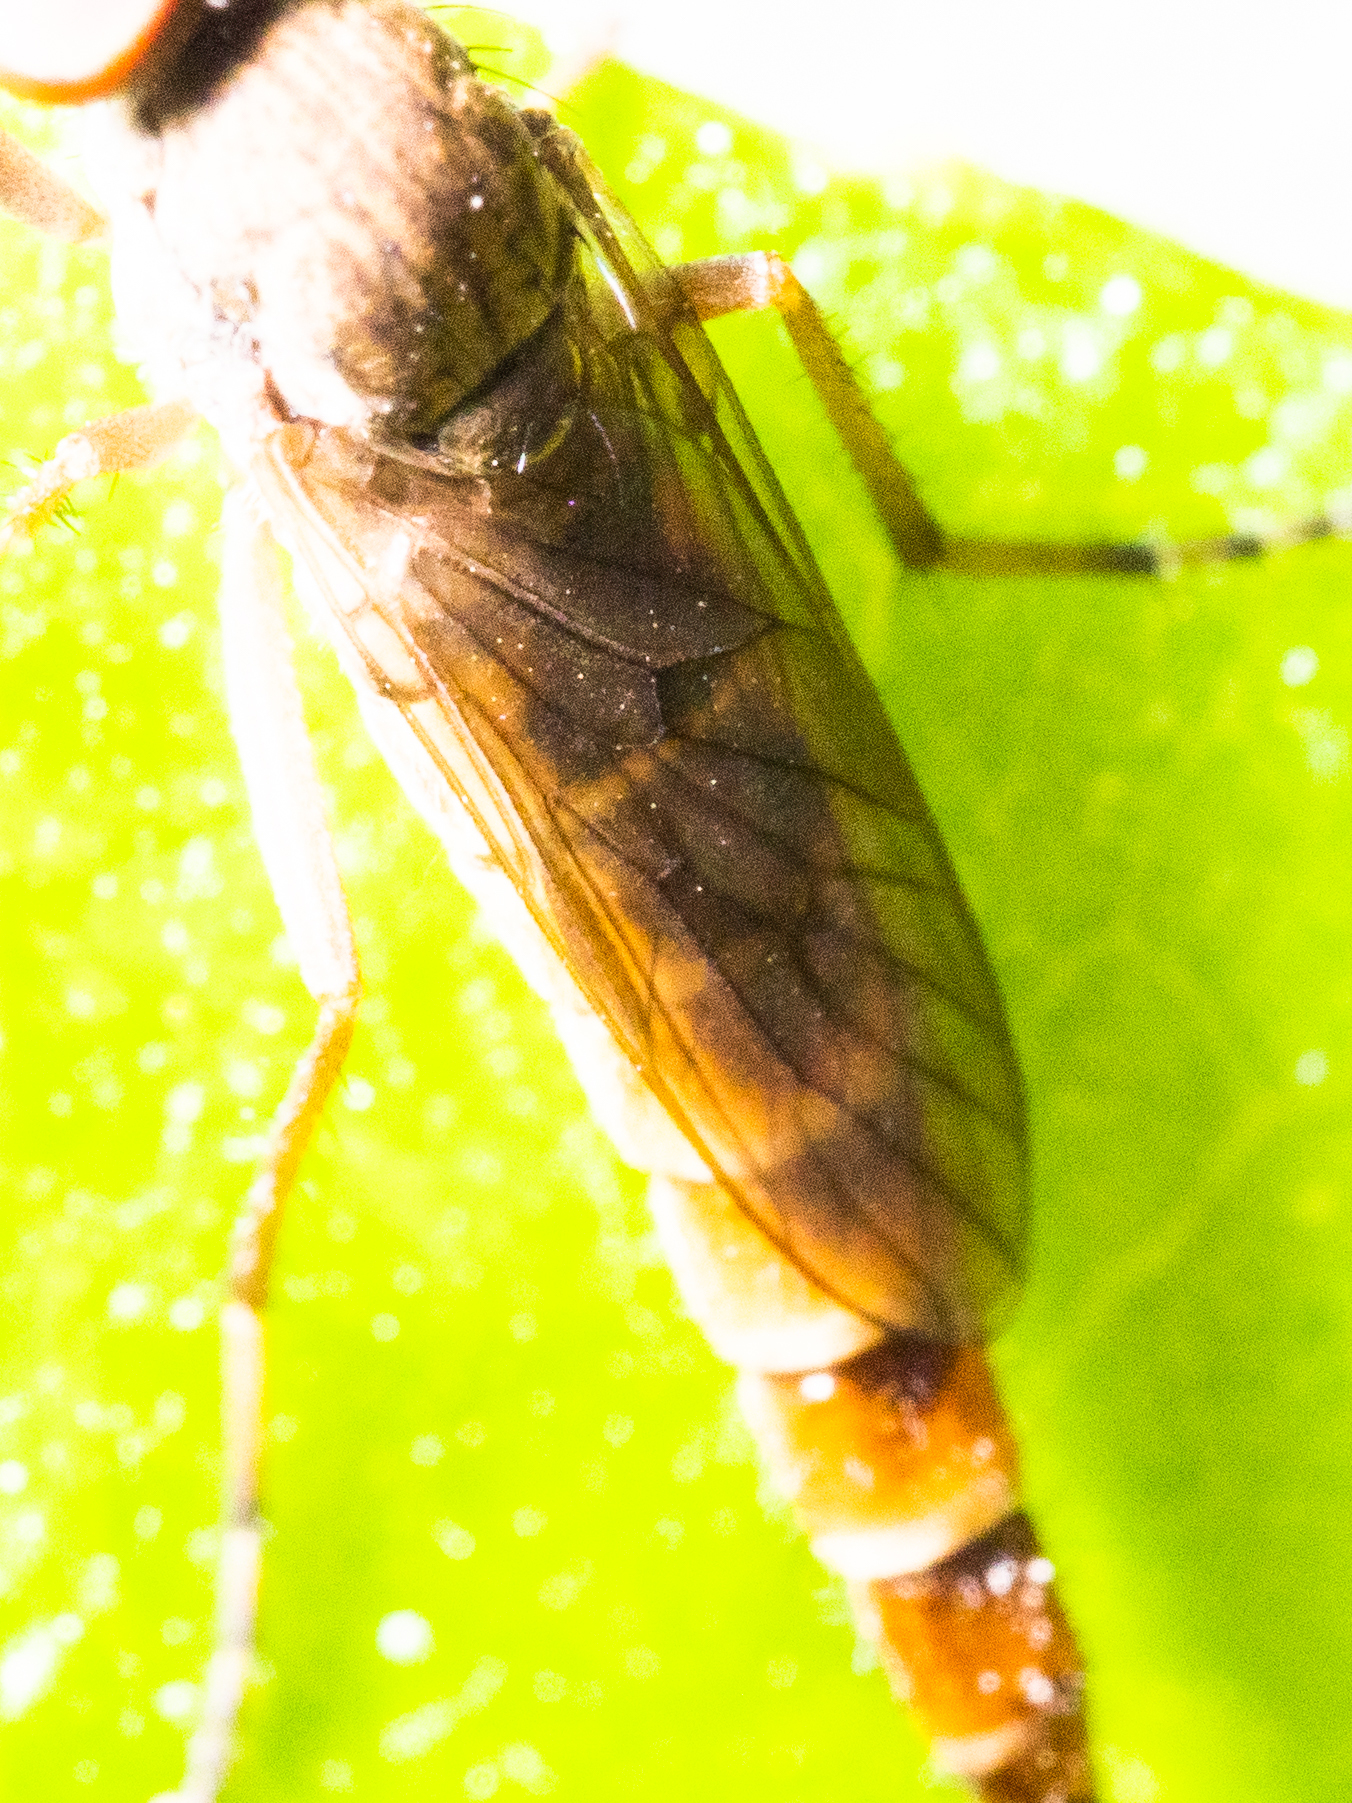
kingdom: Animalia
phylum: Arthropoda
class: Insecta
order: Diptera
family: Therevidae
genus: Neodialineura
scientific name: Neodialineura nitens
